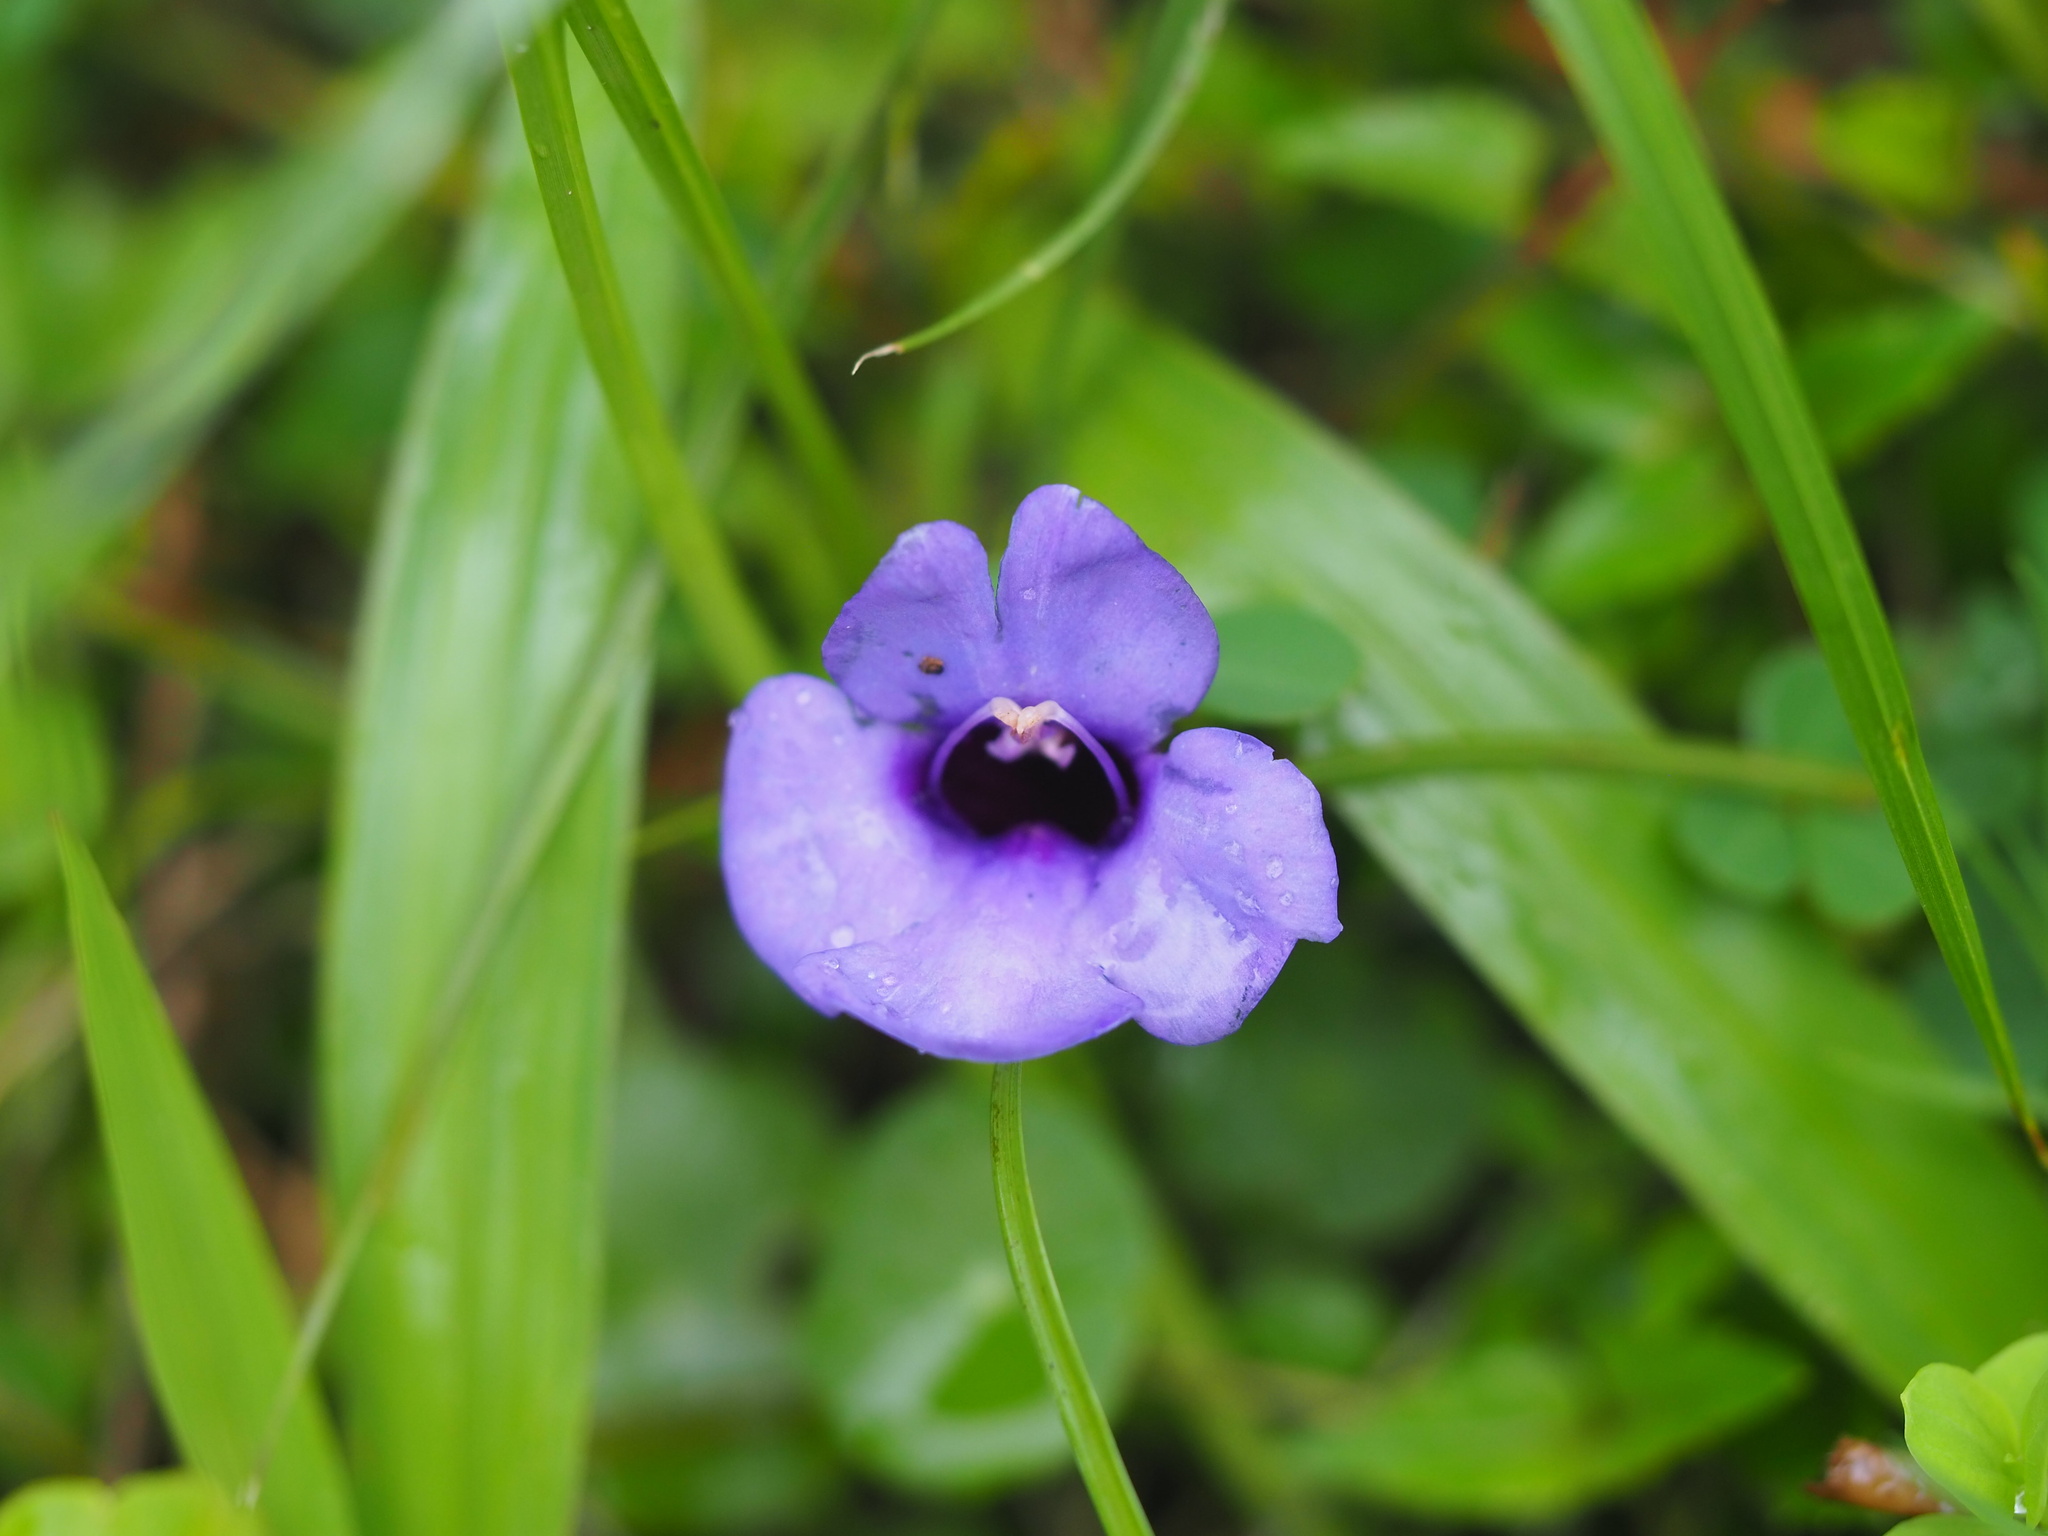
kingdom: Plantae
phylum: Tracheophyta
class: Magnoliopsida
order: Lamiales
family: Linderniaceae
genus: Torenia
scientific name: Torenia concolor
